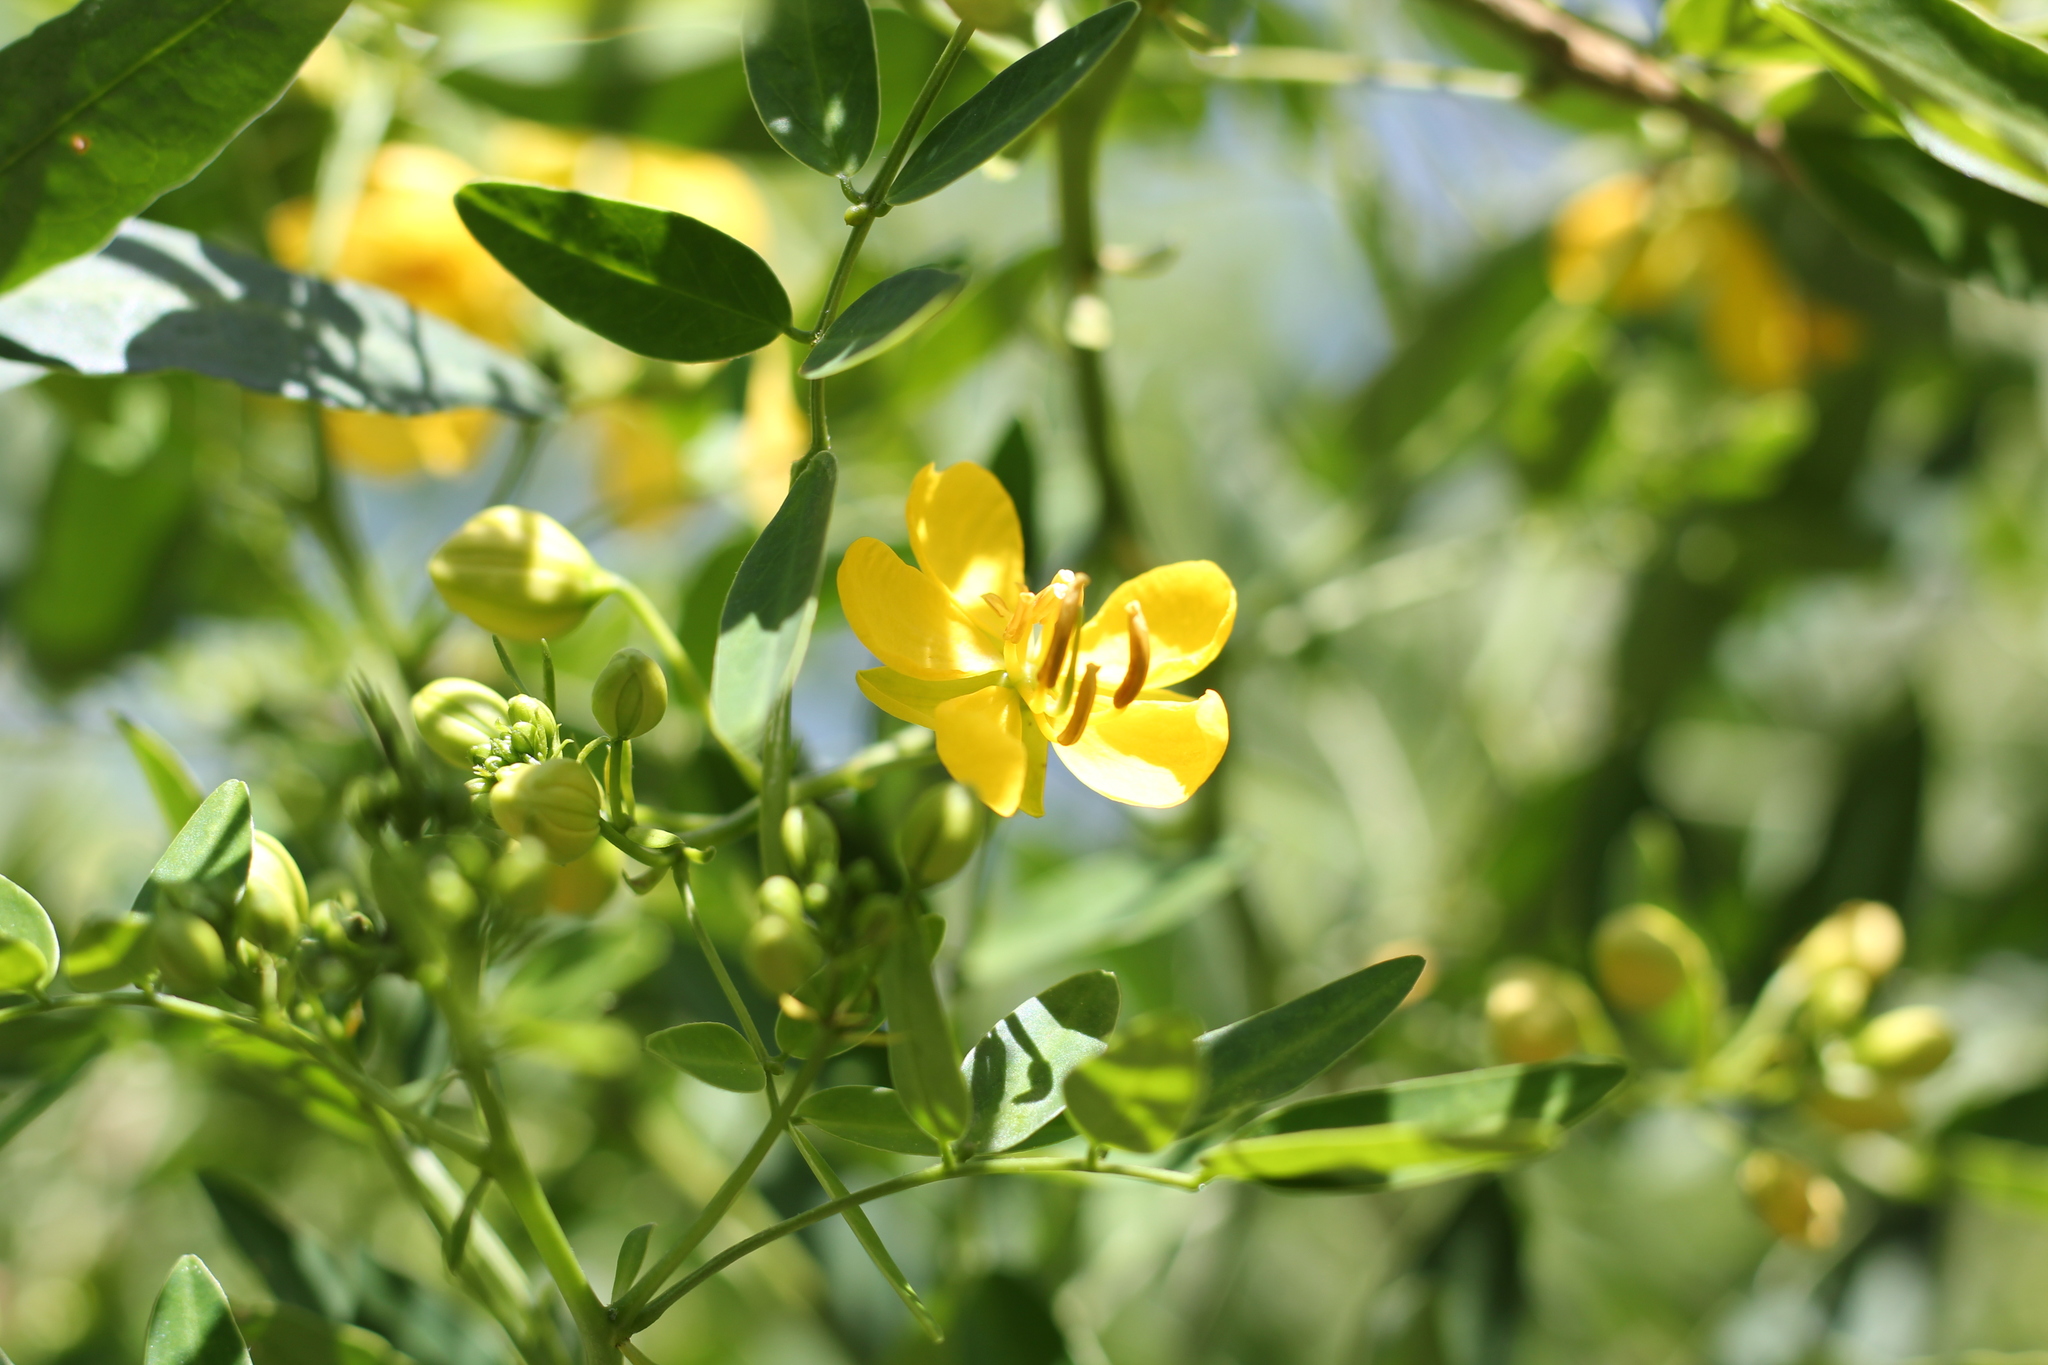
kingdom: Plantae
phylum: Tracheophyta
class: Magnoliopsida
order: Fabales
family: Fabaceae
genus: Senna
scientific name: Senna corymbosa
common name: Argentine senna
